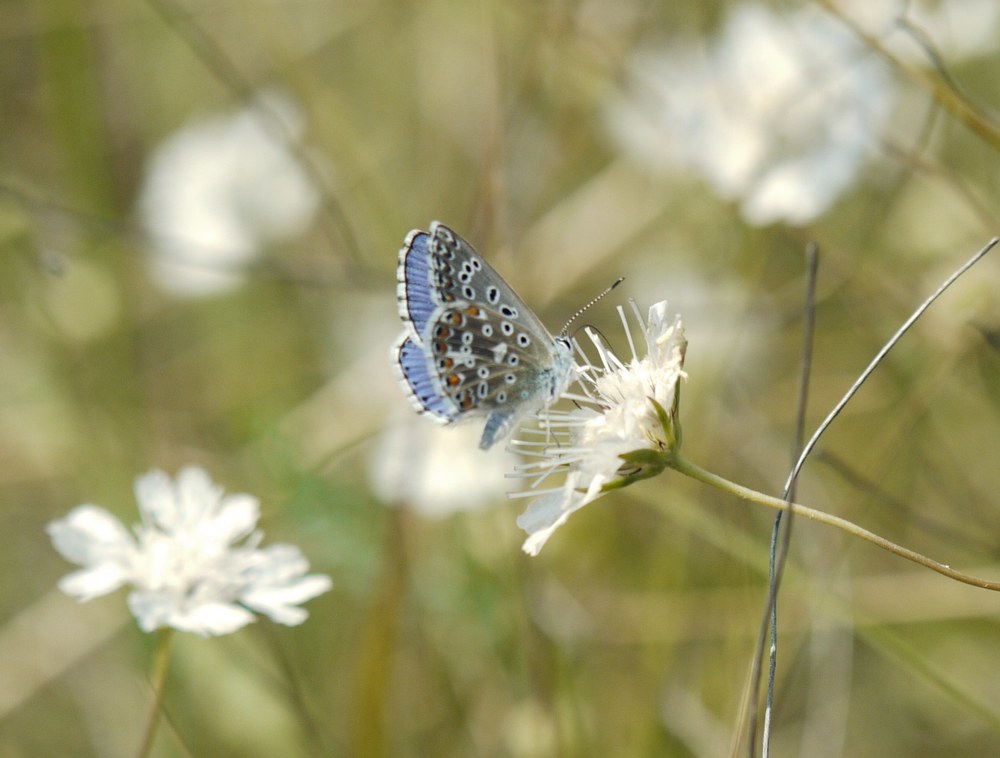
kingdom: Animalia
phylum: Arthropoda
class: Insecta
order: Lepidoptera
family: Lycaenidae
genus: Lysandra
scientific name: Lysandra bellargus
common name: Adonis blue
